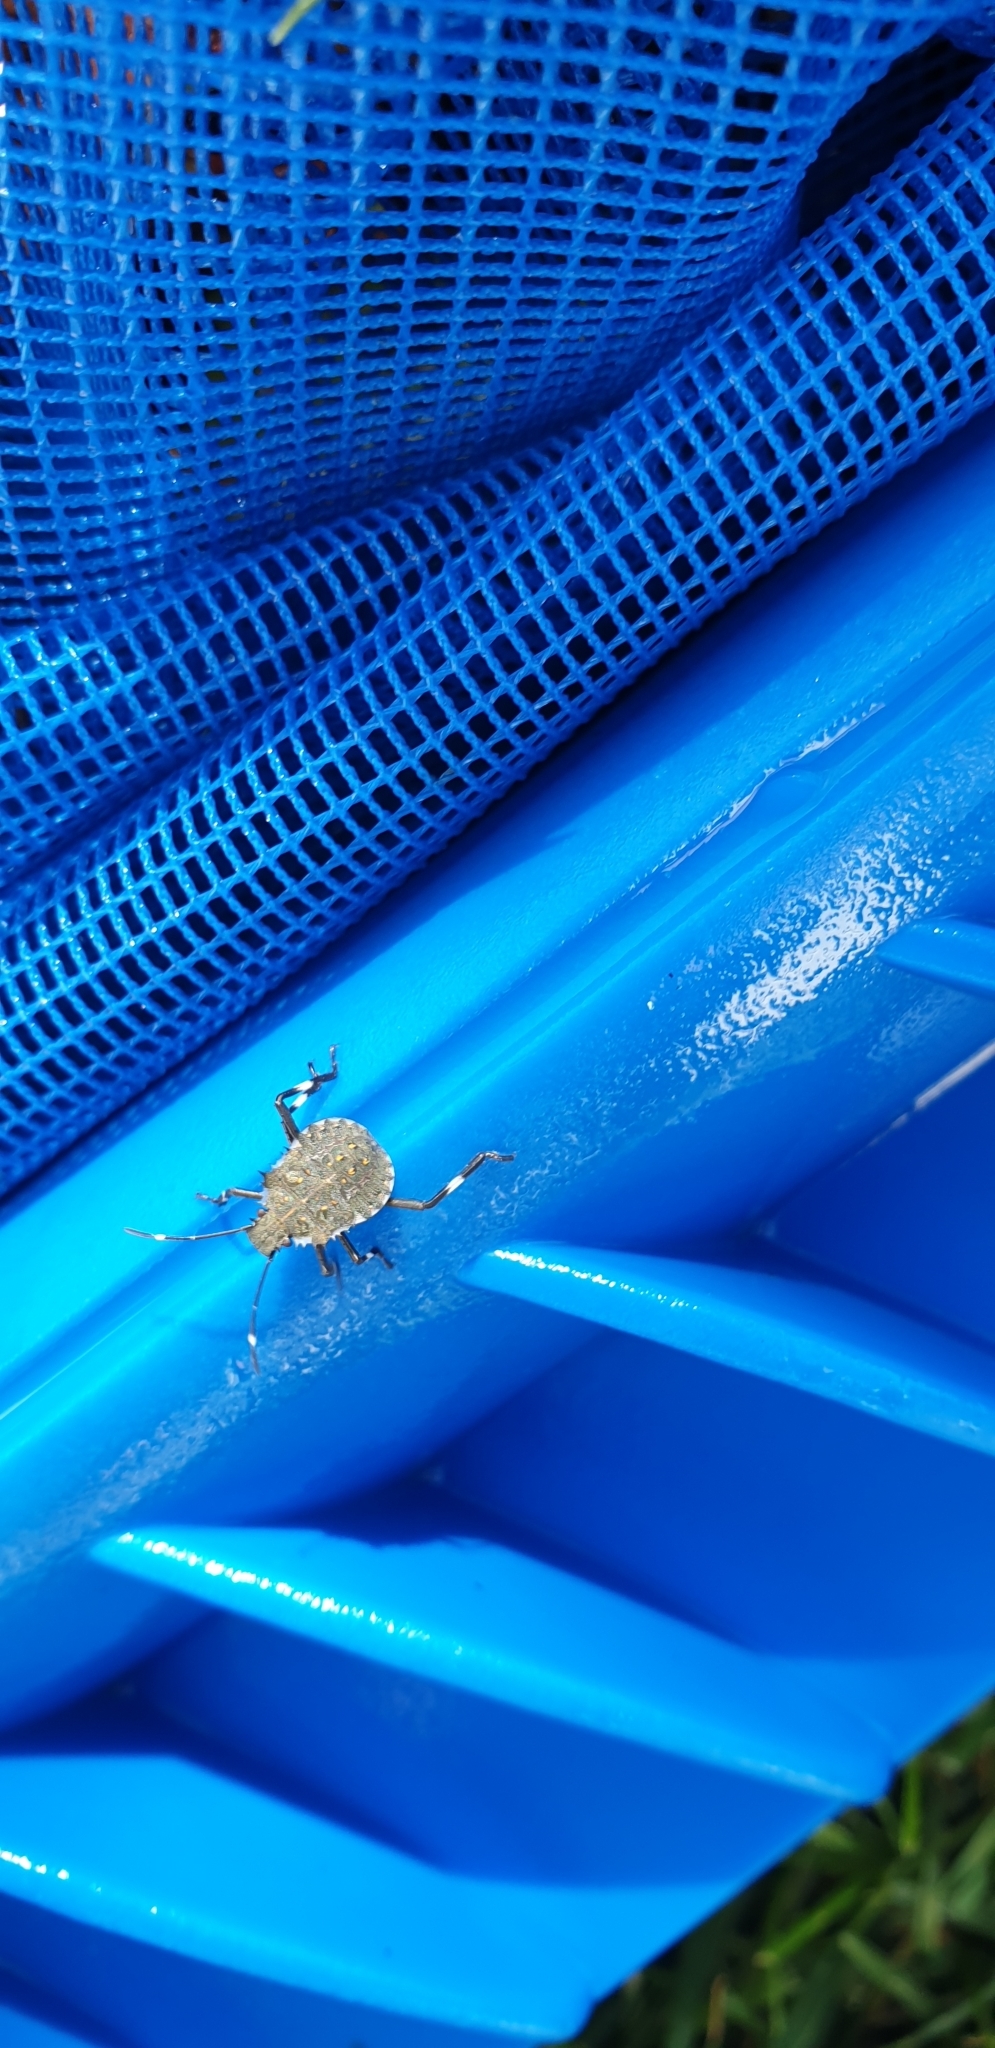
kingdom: Animalia
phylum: Arthropoda
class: Insecta
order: Hemiptera
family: Pentatomidae
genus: Halyomorpha
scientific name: Halyomorpha halys
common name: Brown marmorated stink bug
